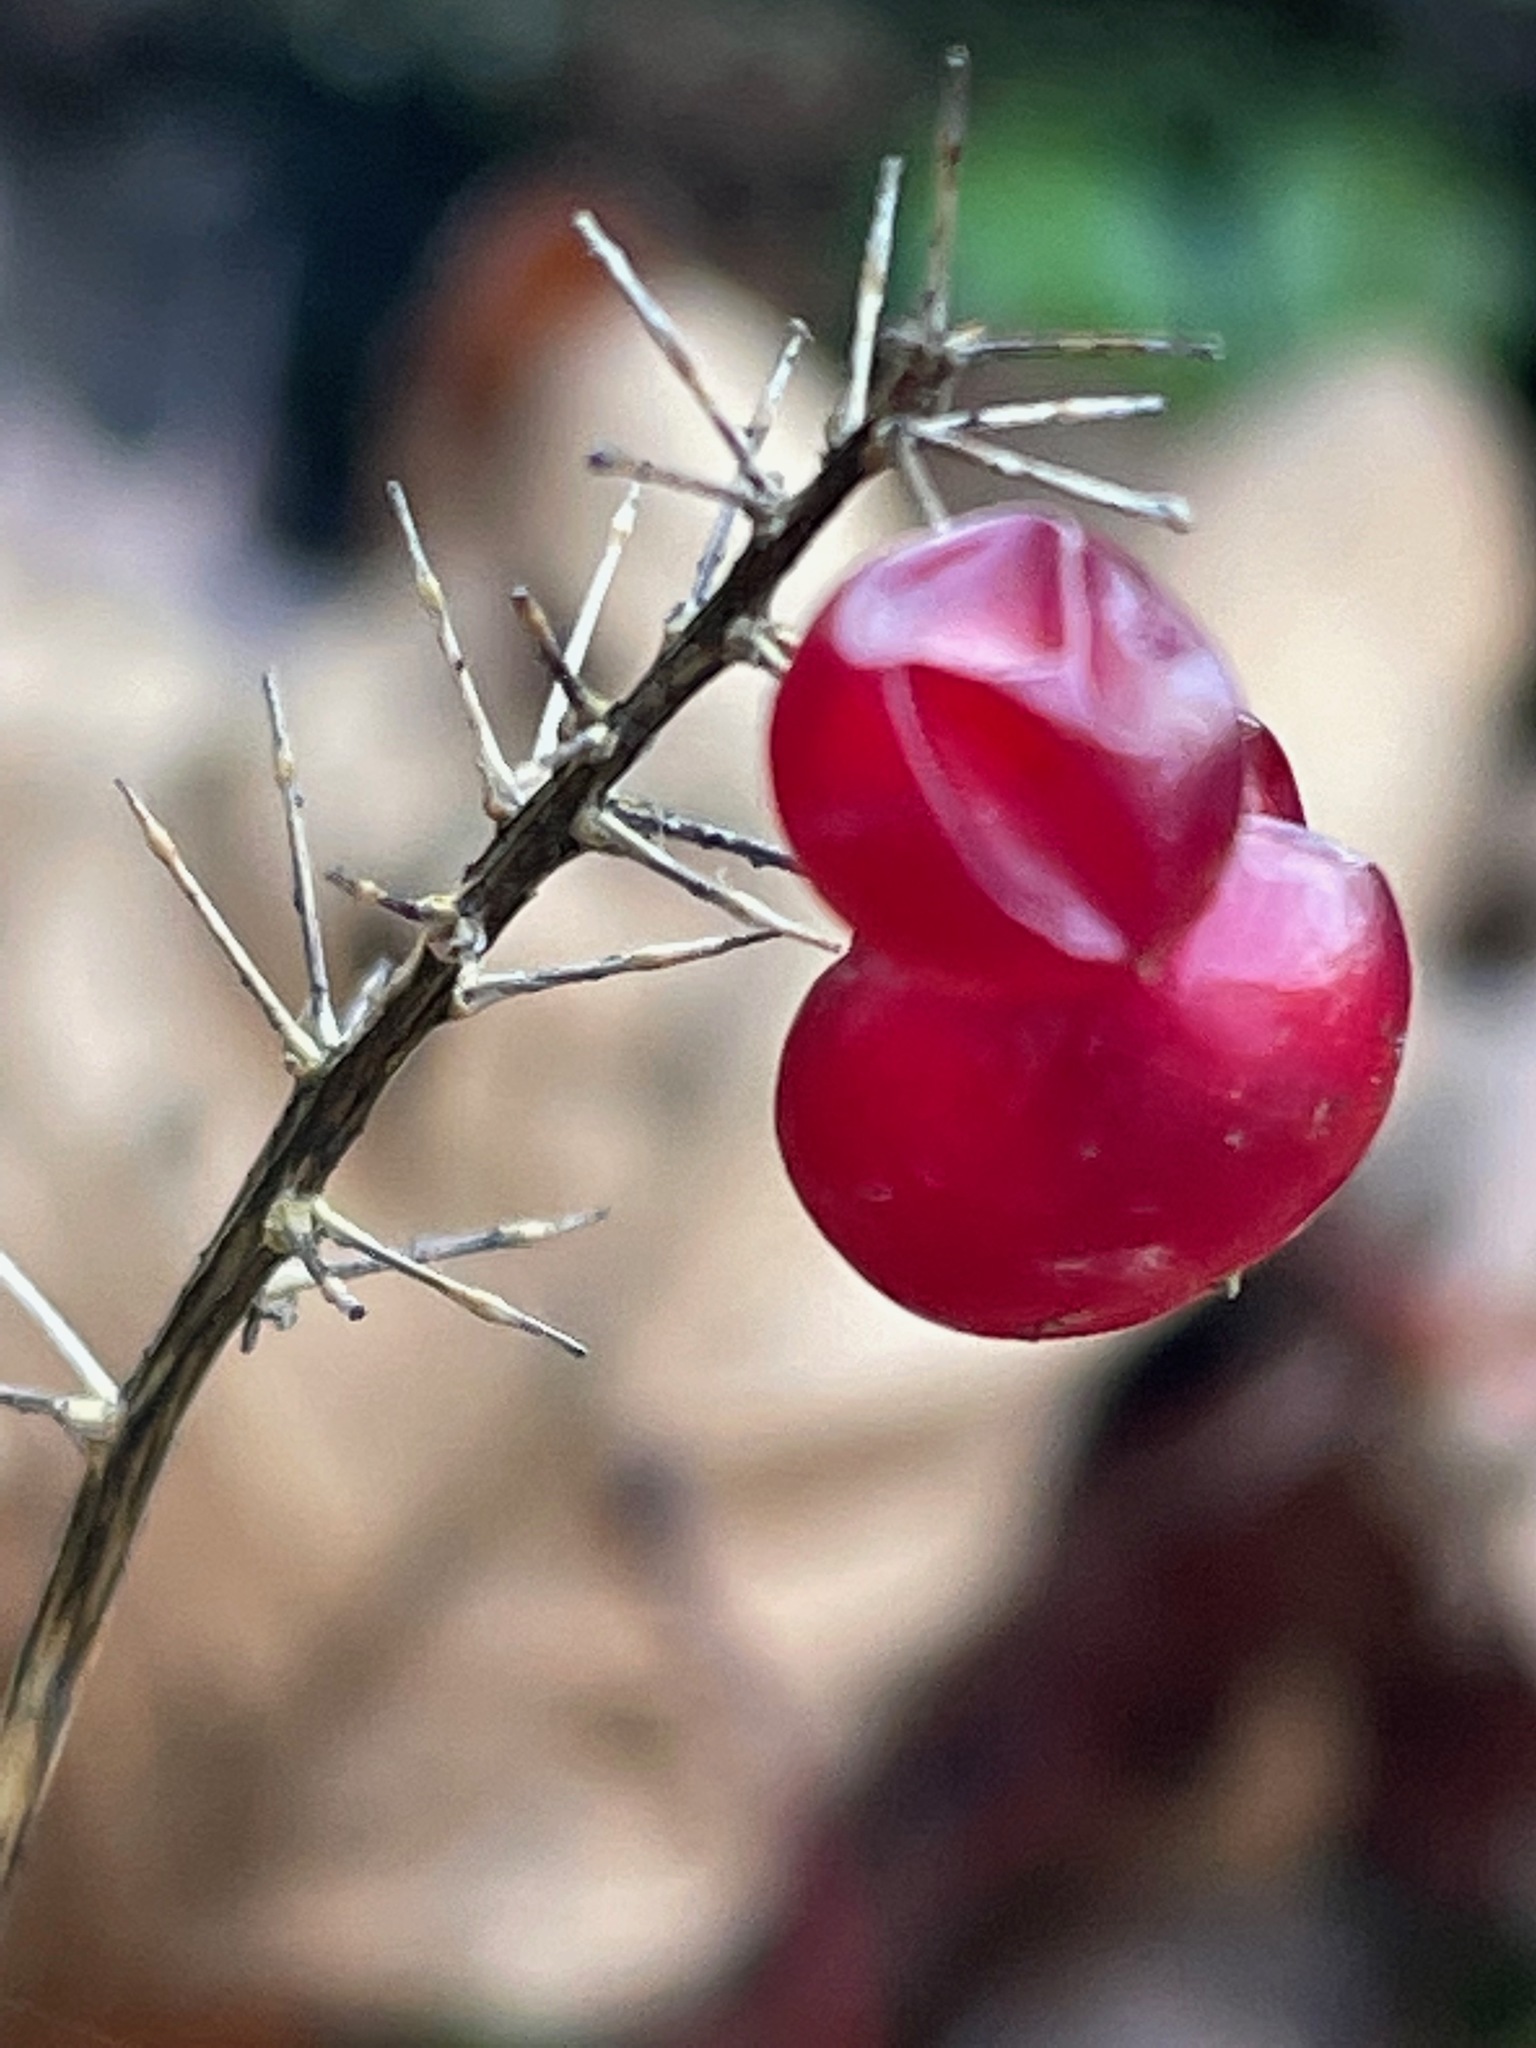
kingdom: Plantae
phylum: Tracheophyta
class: Liliopsida
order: Asparagales
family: Asparagaceae
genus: Maianthemum
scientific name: Maianthemum canadense
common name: False lily-of-the-valley
